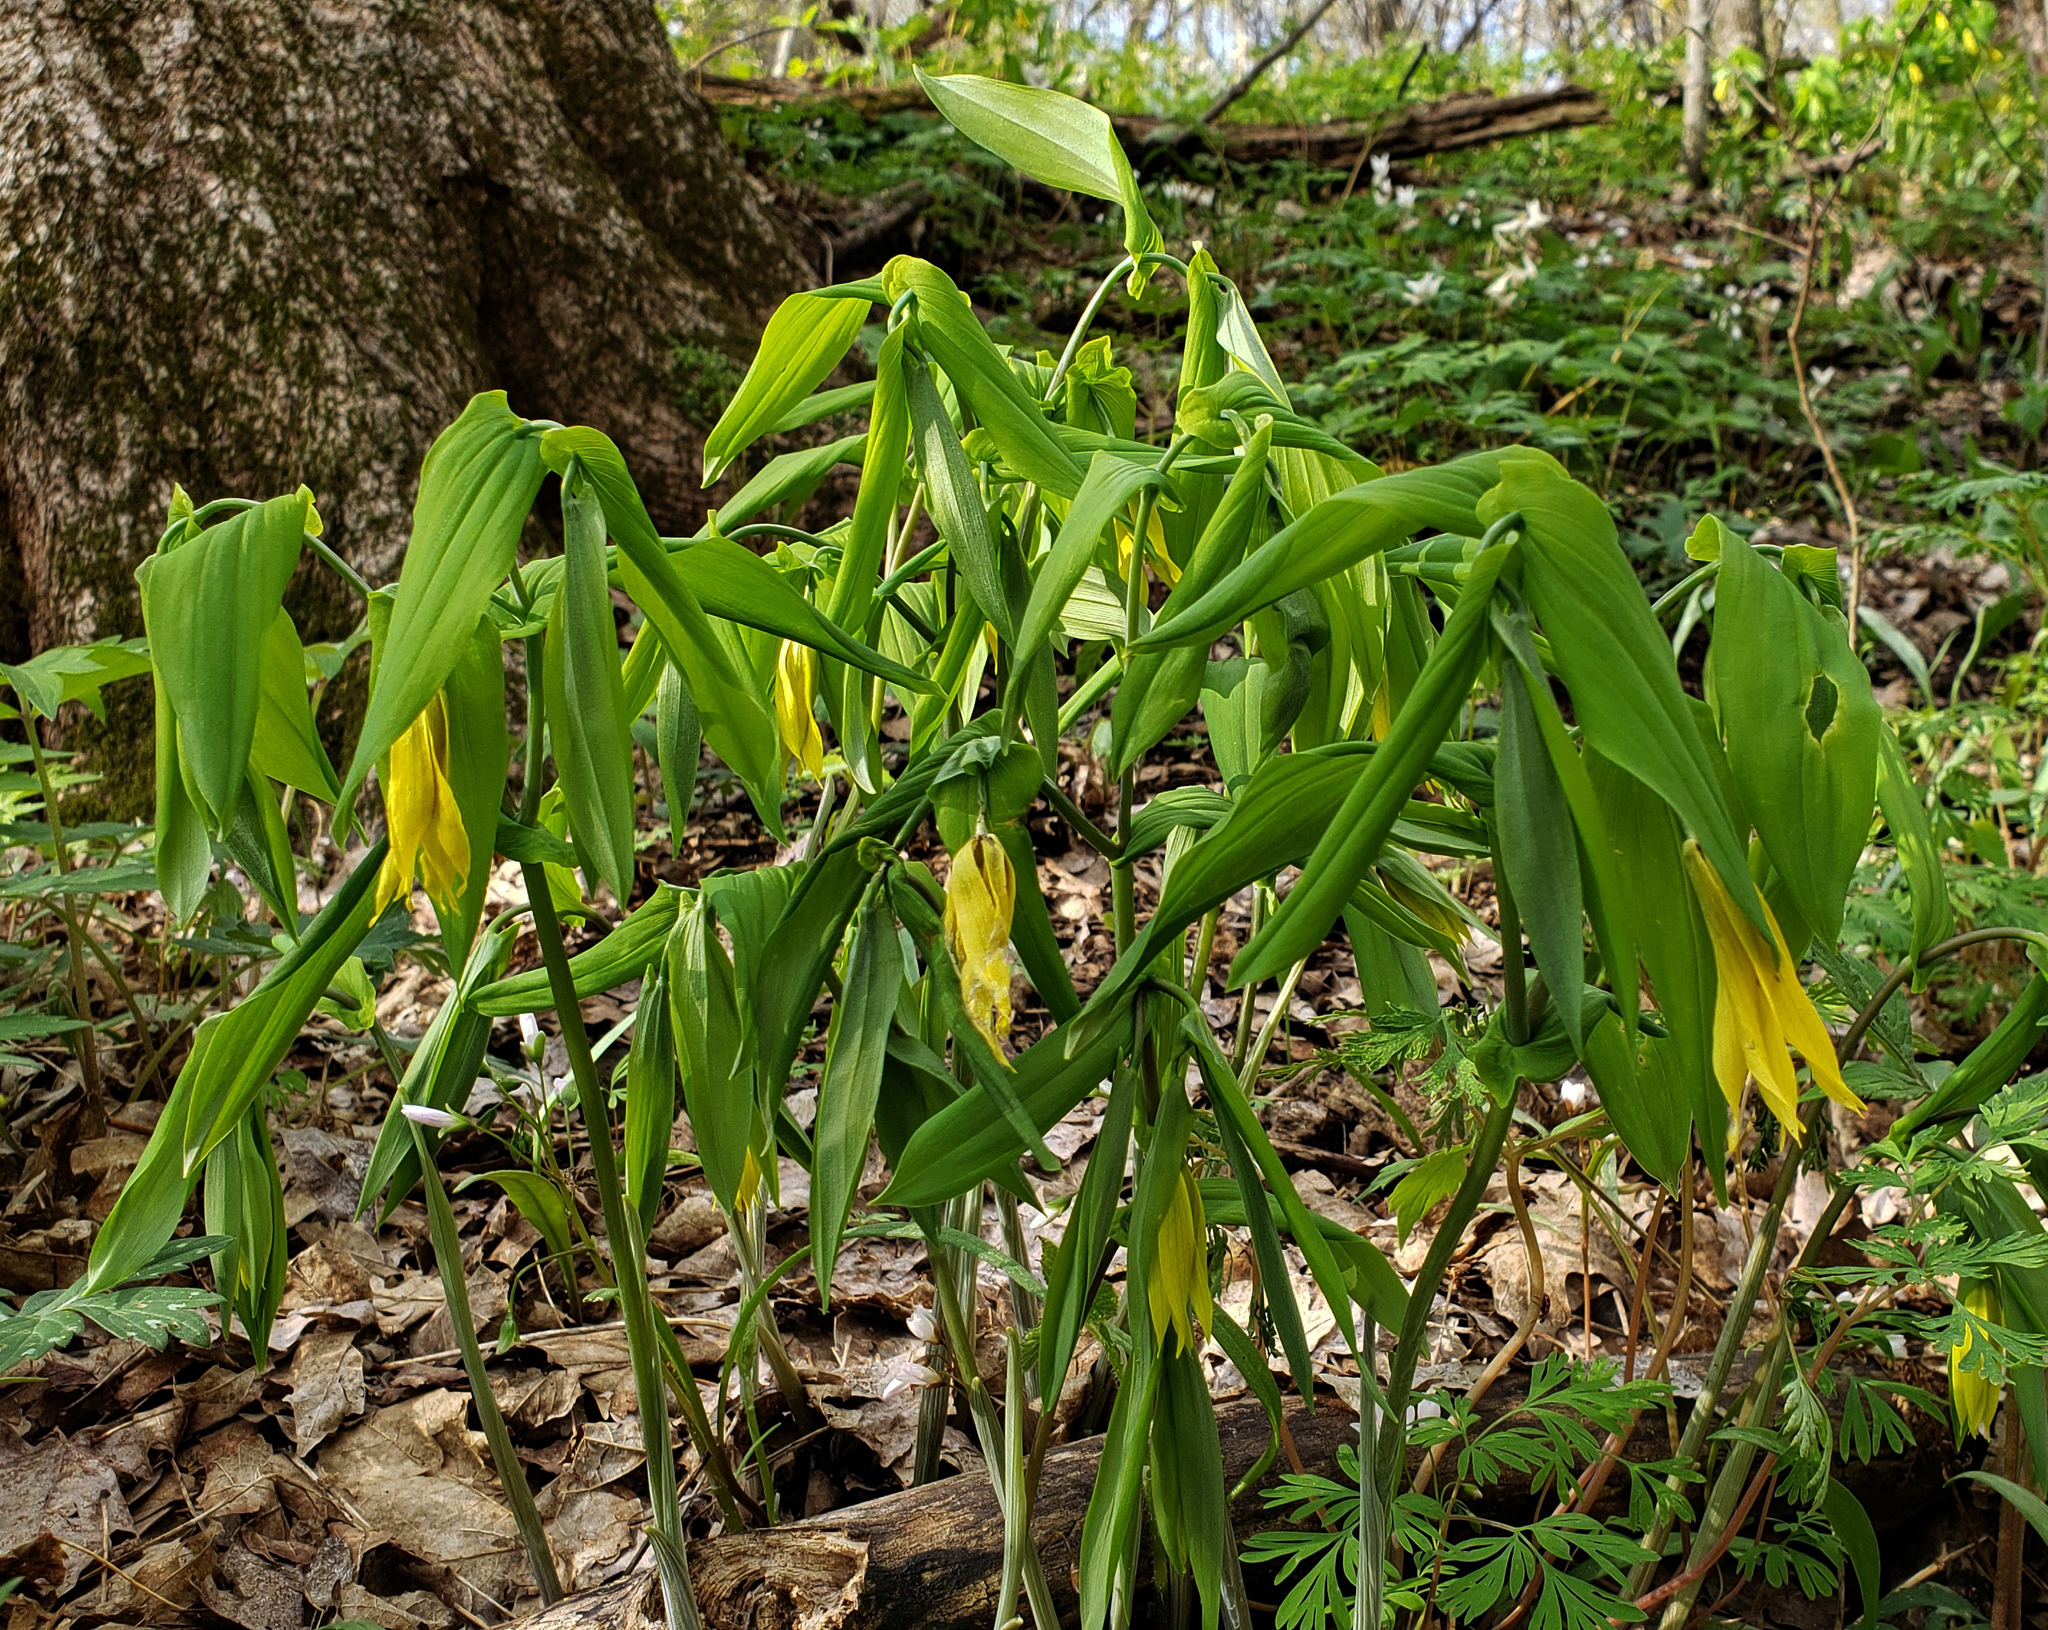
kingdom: Plantae
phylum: Tracheophyta
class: Liliopsida
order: Liliales
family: Colchicaceae
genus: Uvularia
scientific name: Uvularia grandiflora
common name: Bellwort
